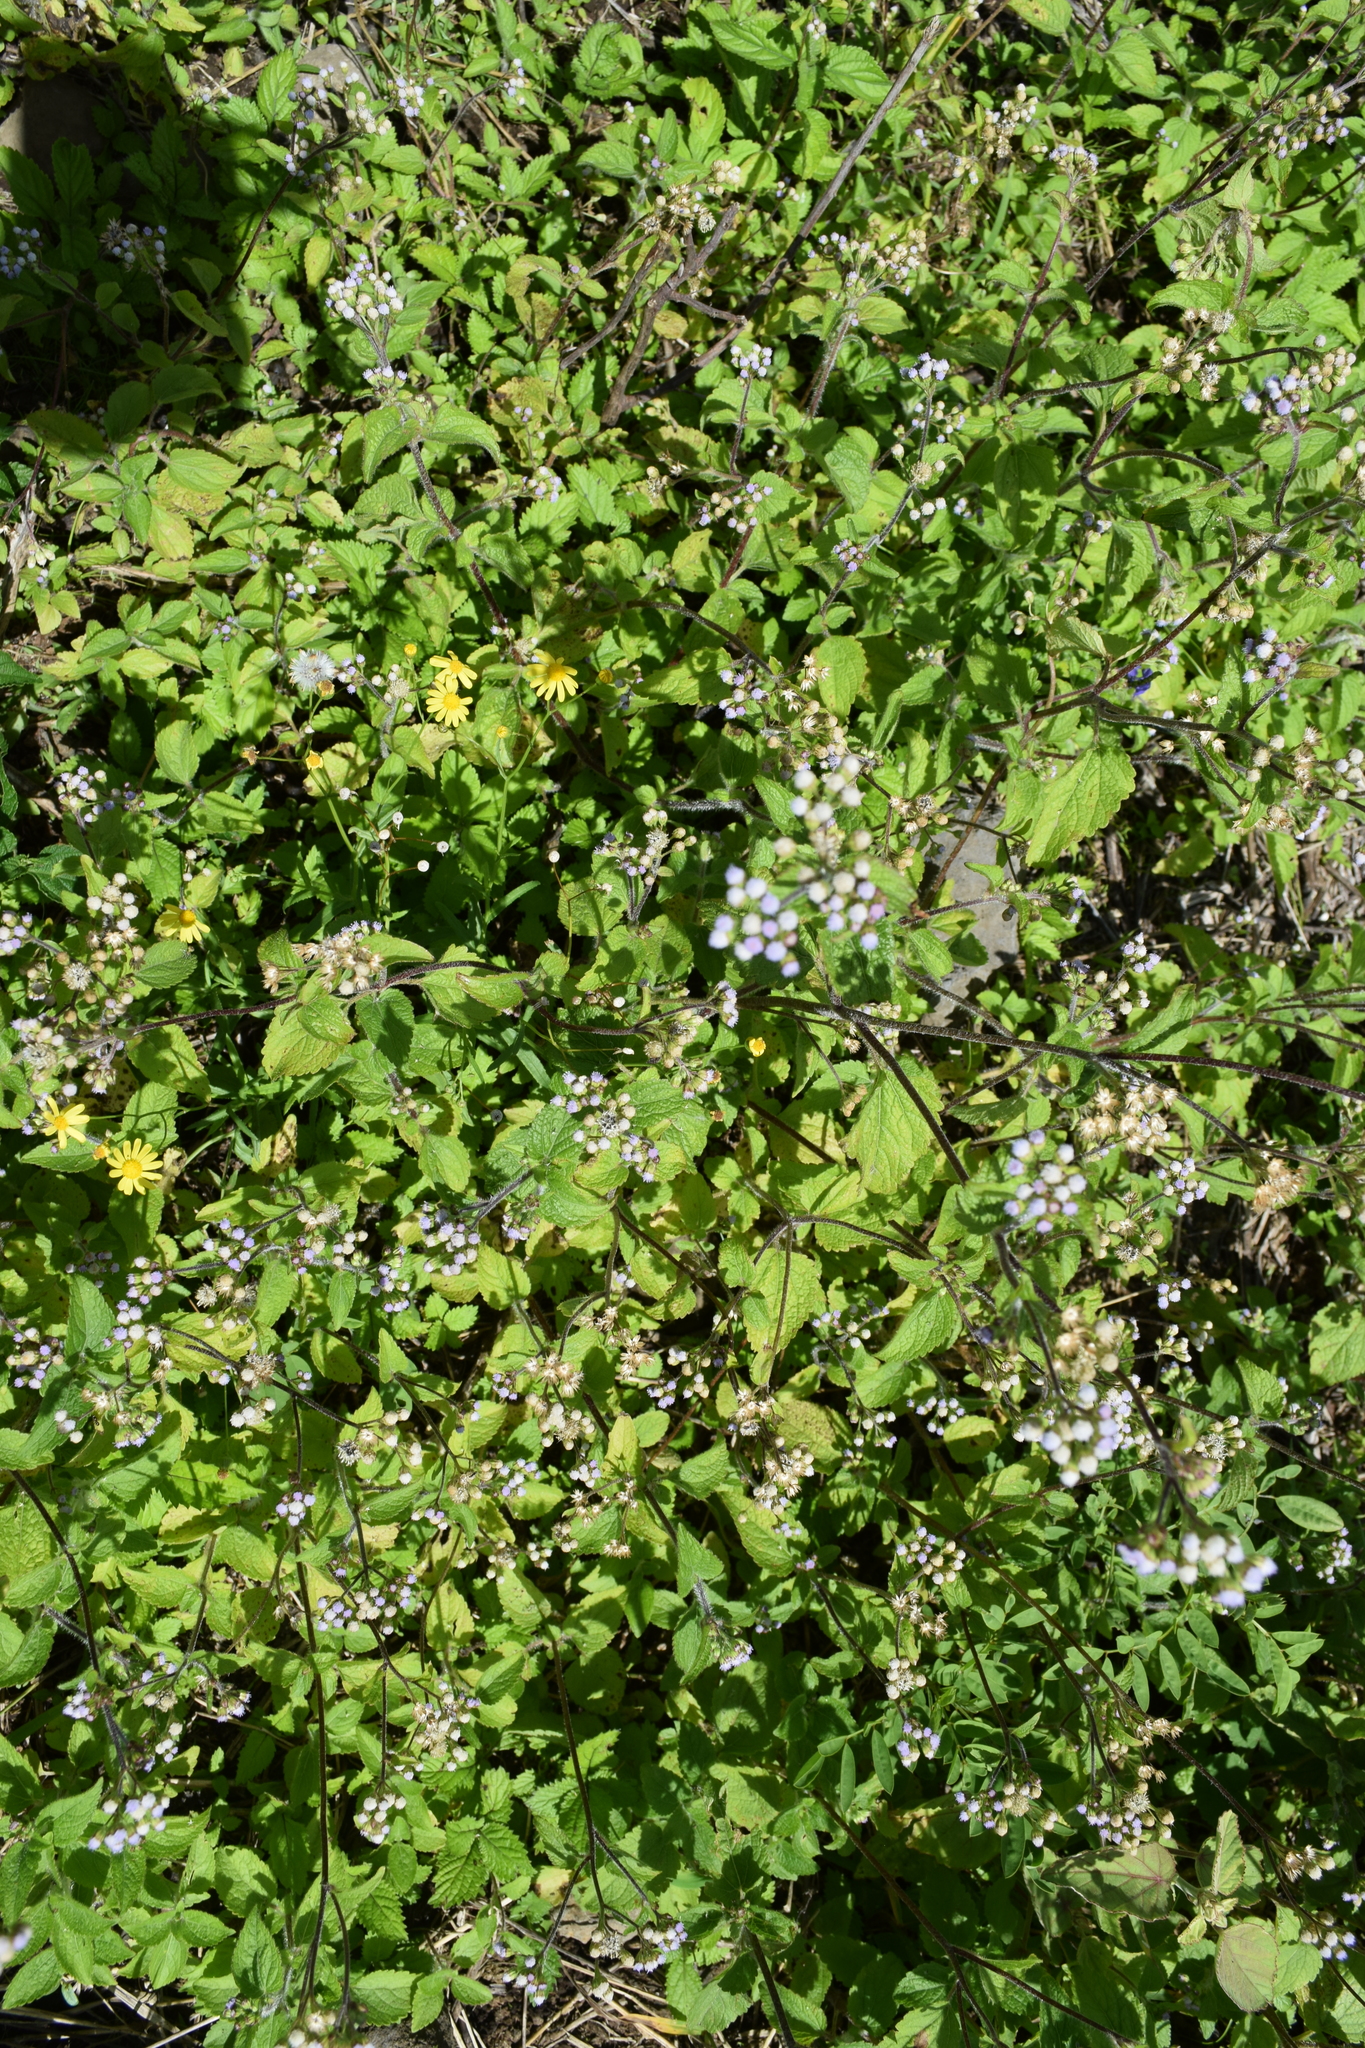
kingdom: Plantae
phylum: Tracheophyta
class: Magnoliopsida
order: Asterales
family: Asteraceae
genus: Ageratum
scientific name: Ageratum conyzoides
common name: Tropical whiteweed
